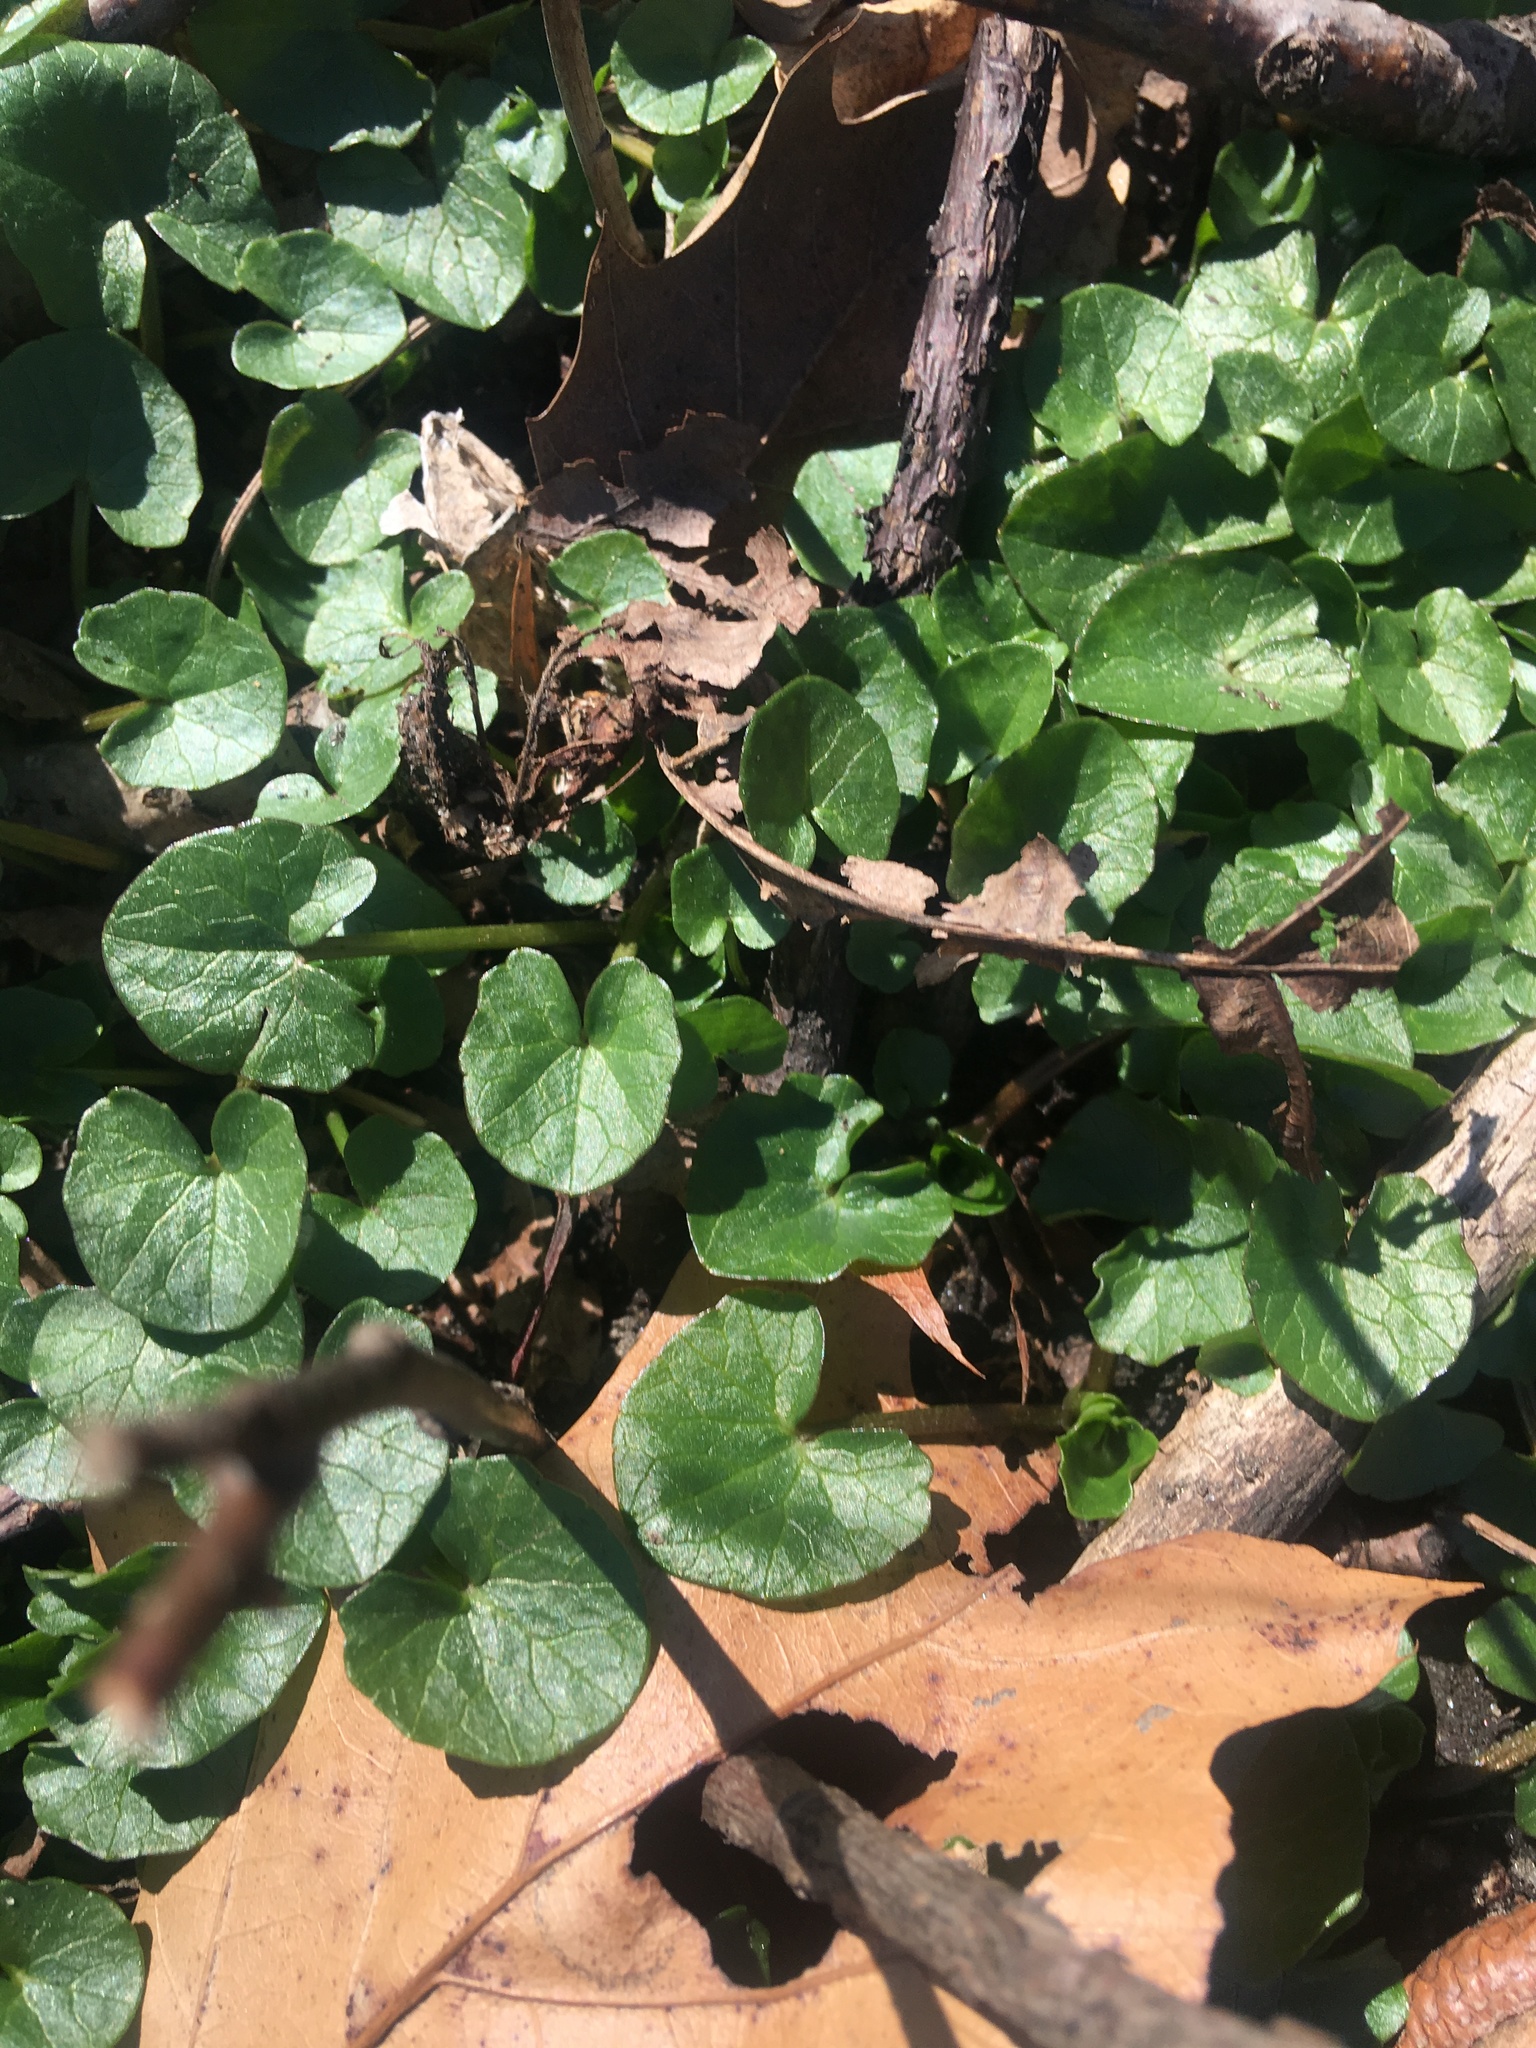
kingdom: Plantae
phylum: Tracheophyta
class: Magnoliopsida
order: Ranunculales
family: Ranunculaceae
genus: Ficaria
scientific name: Ficaria verna
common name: Lesser celandine
